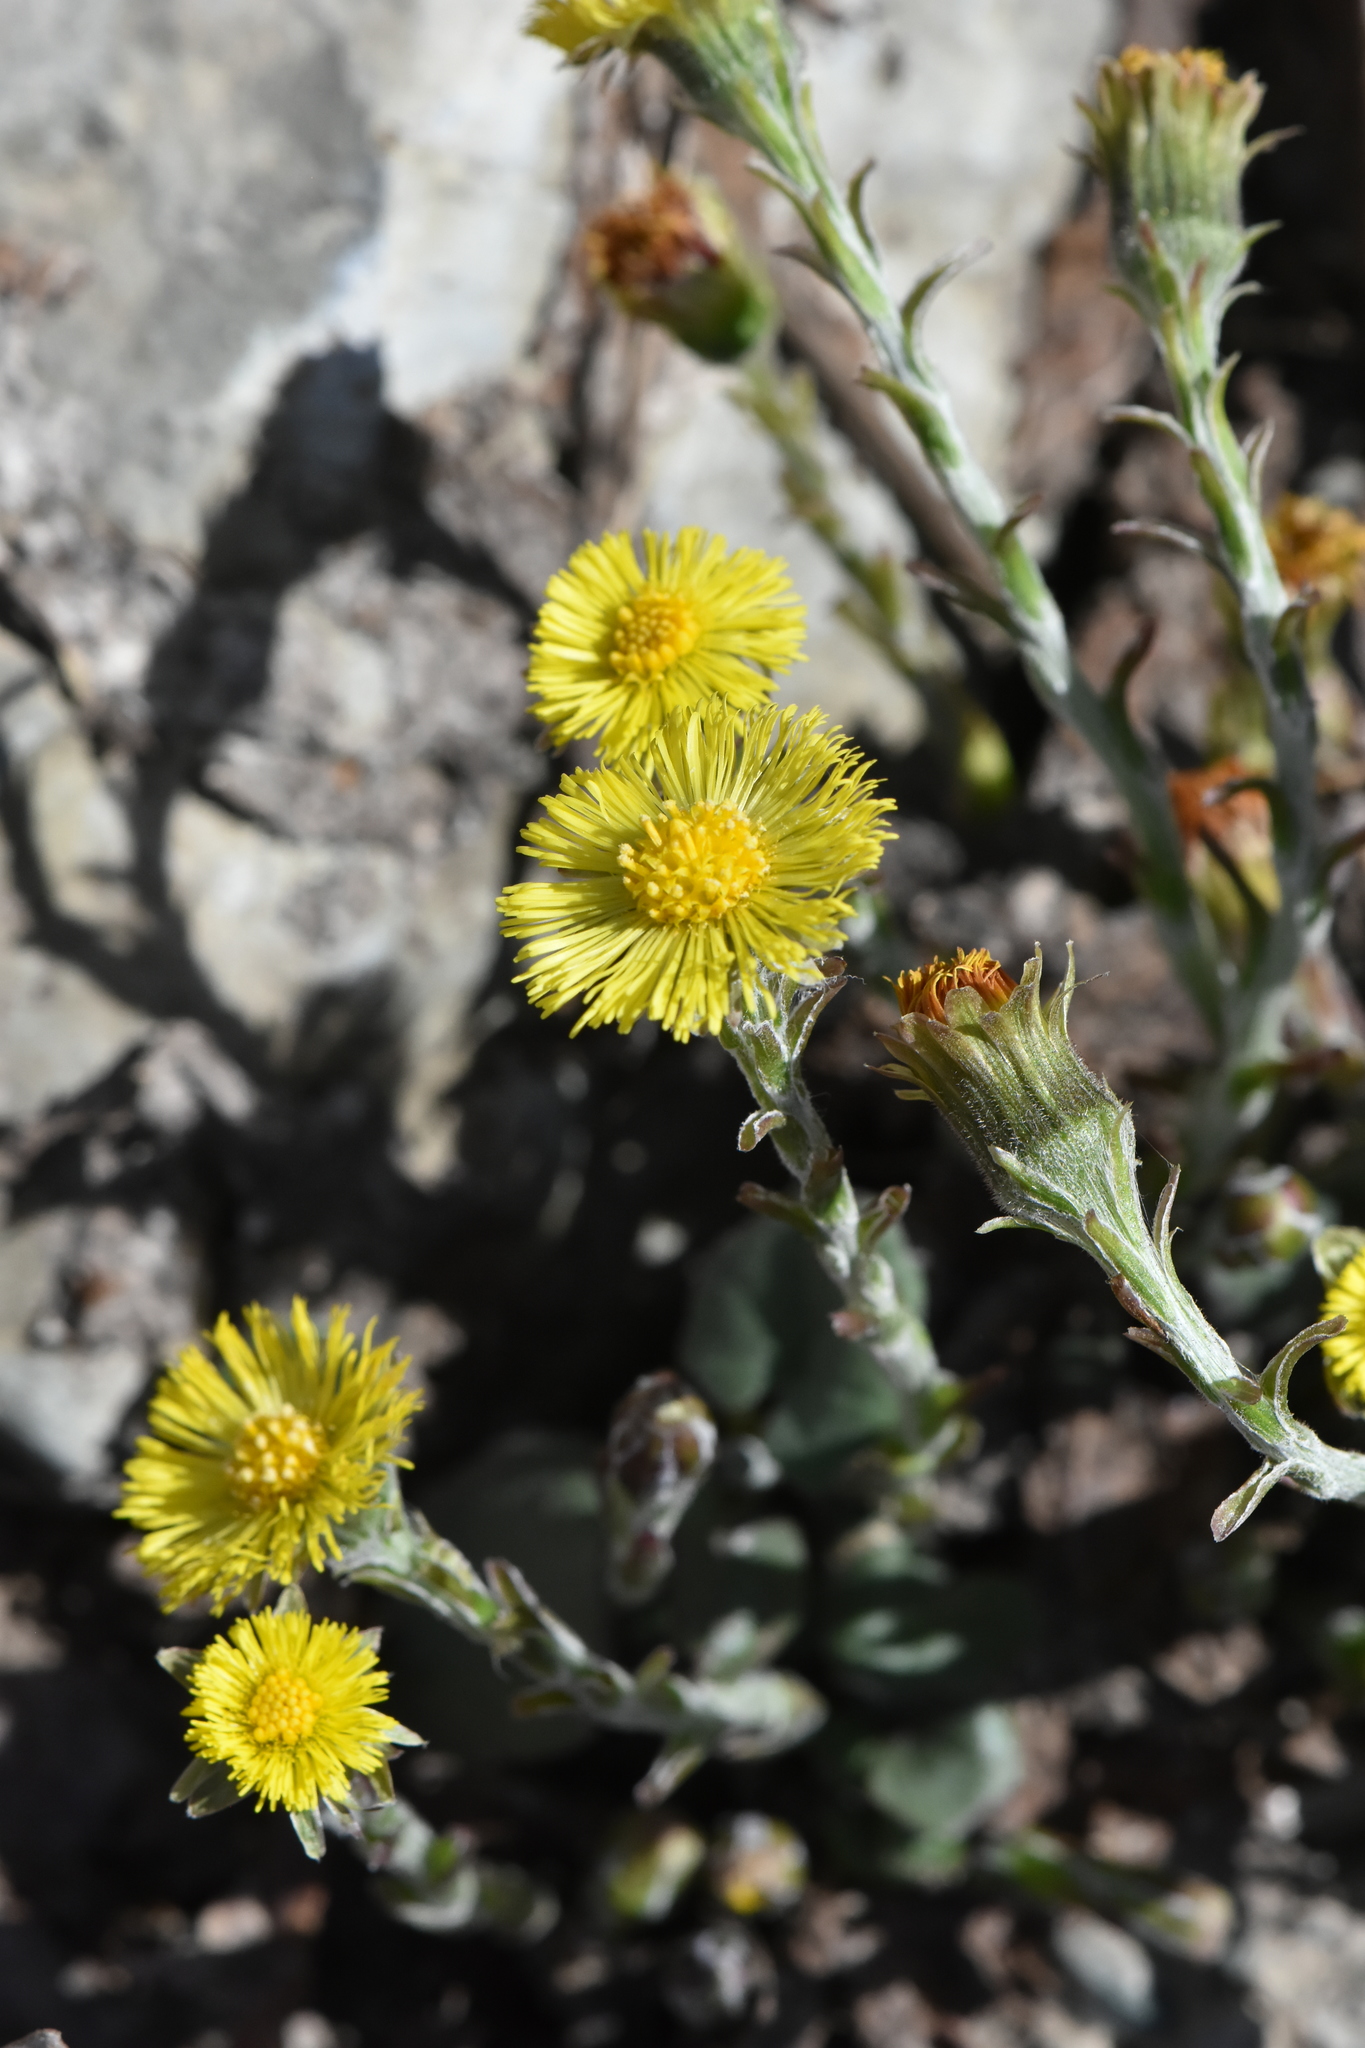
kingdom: Plantae
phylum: Tracheophyta
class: Magnoliopsida
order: Asterales
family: Asteraceae
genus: Tussilago
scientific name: Tussilago farfara
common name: Coltsfoot
